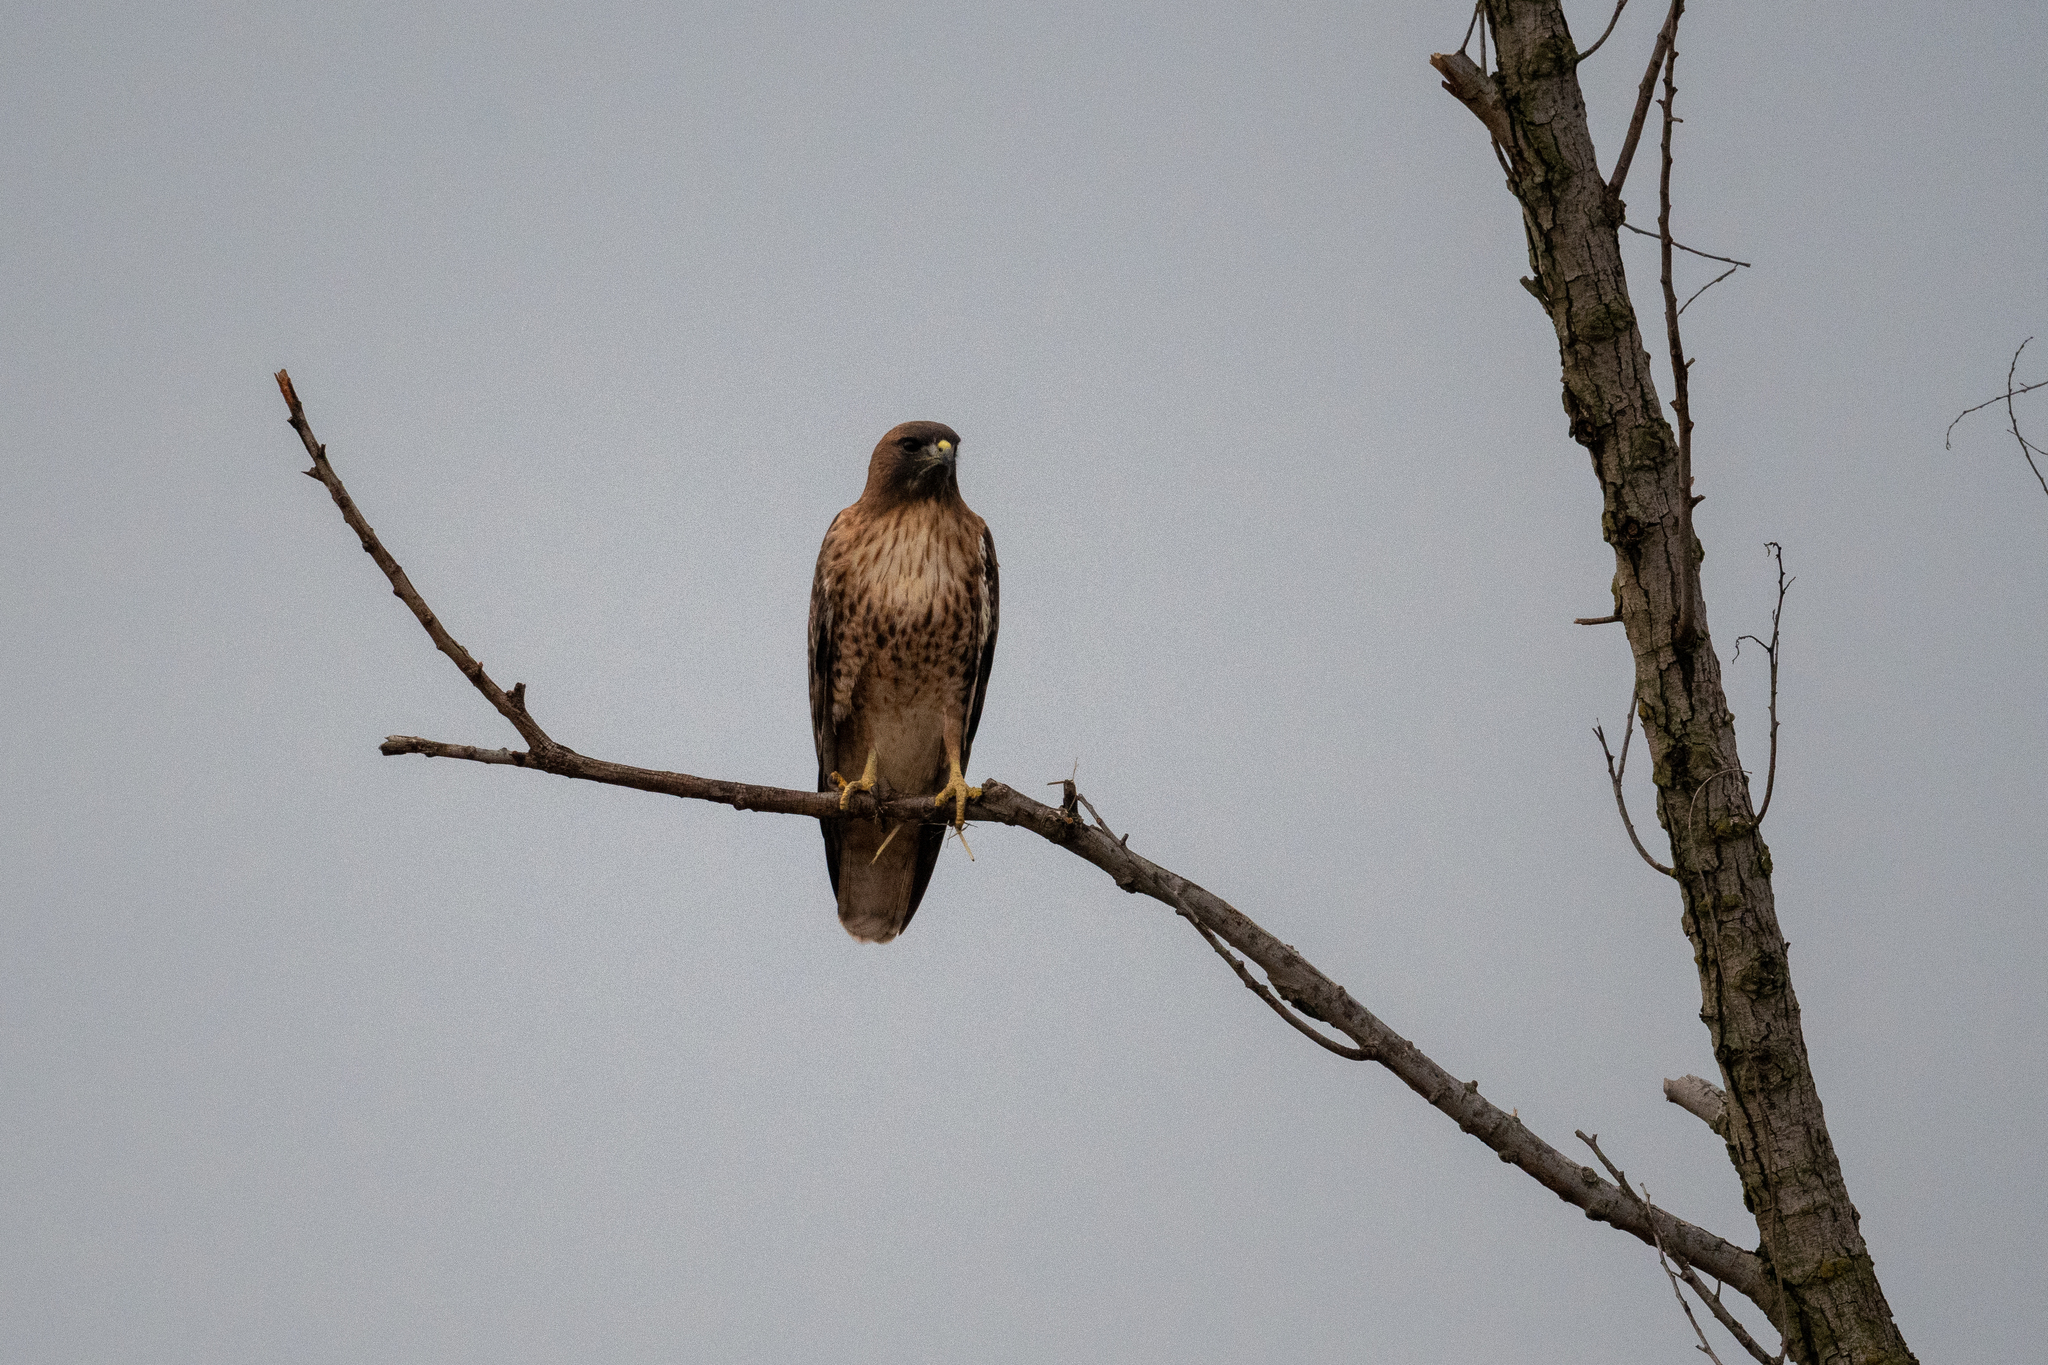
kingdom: Animalia
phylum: Chordata
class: Aves
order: Accipitriformes
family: Accipitridae
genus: Buteo
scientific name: Buteo jamaicensis
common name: Red-tailed hawk
